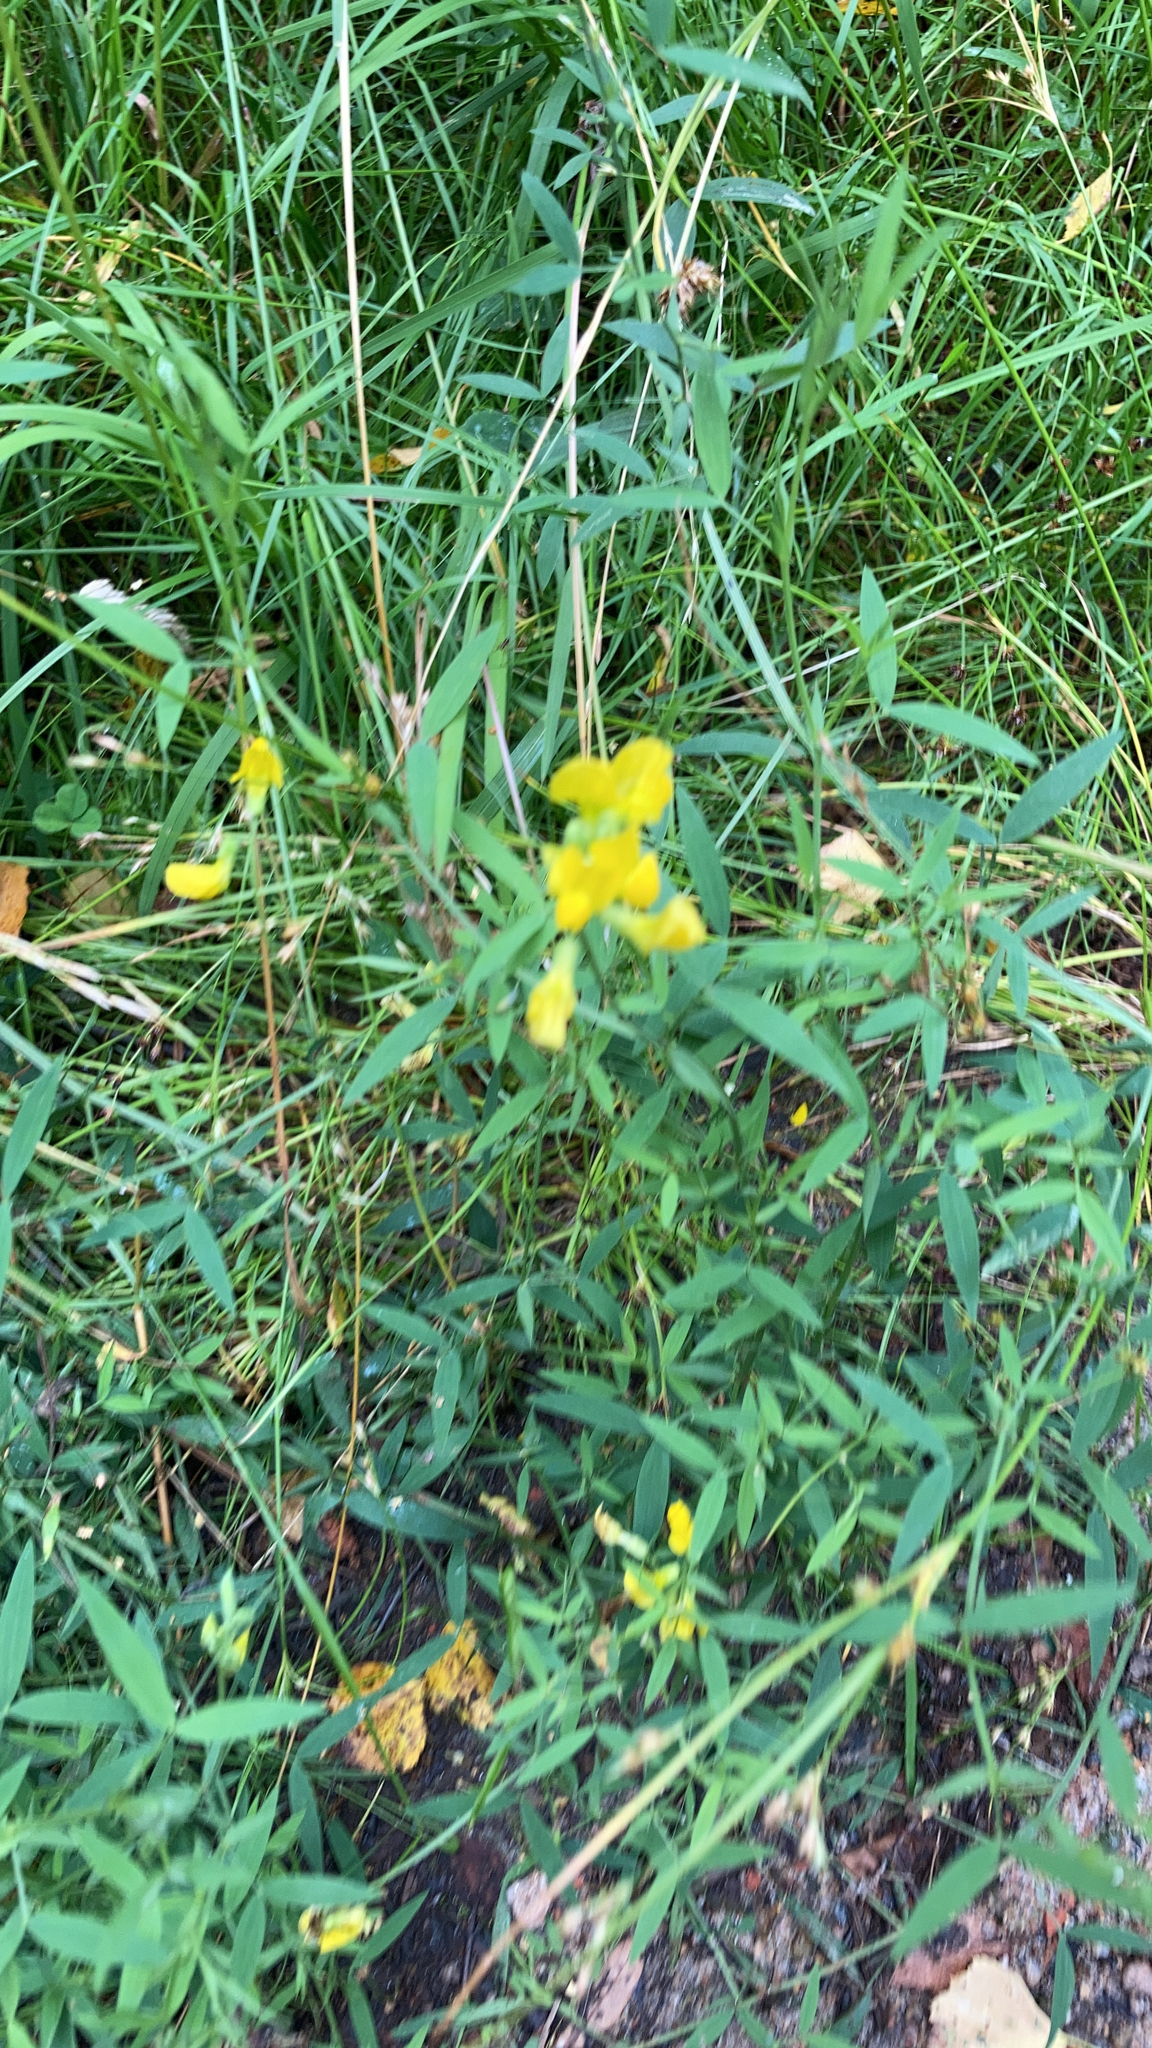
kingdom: Plantae
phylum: Tracheophyta
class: Magnoliopsida
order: Fabales
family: Fabaceae
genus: Lathyrus
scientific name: Lathyrus pratensis
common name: Meadow vetchling
